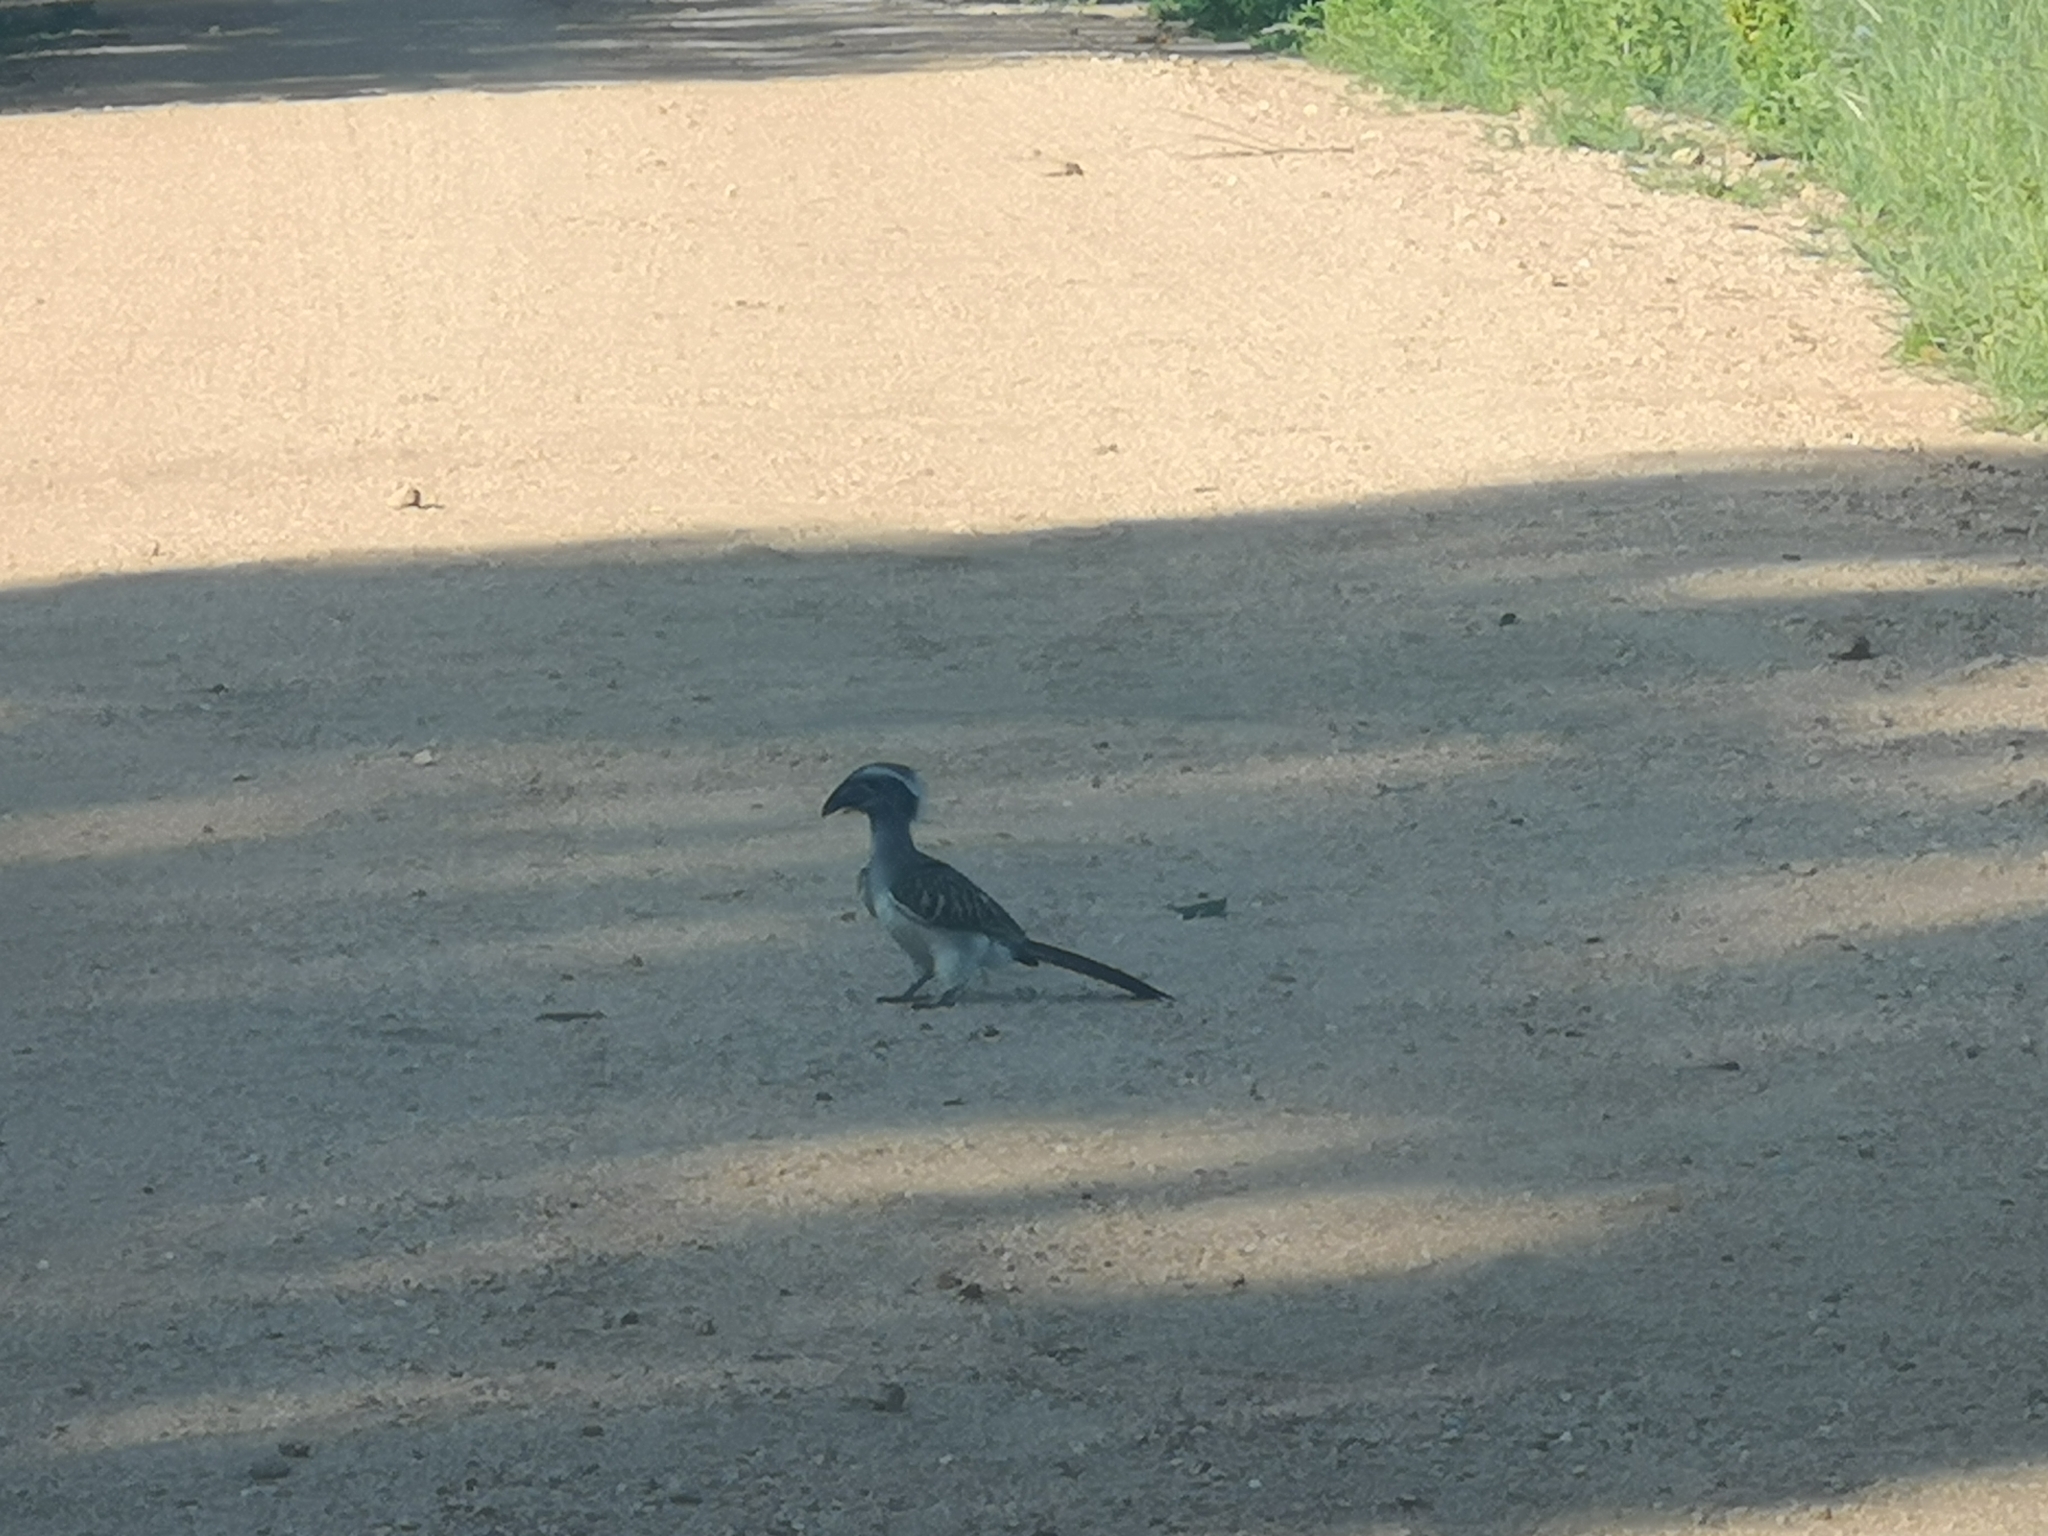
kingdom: Animalia
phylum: Chordata
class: Aves
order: Bucerotiformes
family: Bucerotidae
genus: Lophoceros
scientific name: Lophoceros nasutus
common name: African grey hornbill
